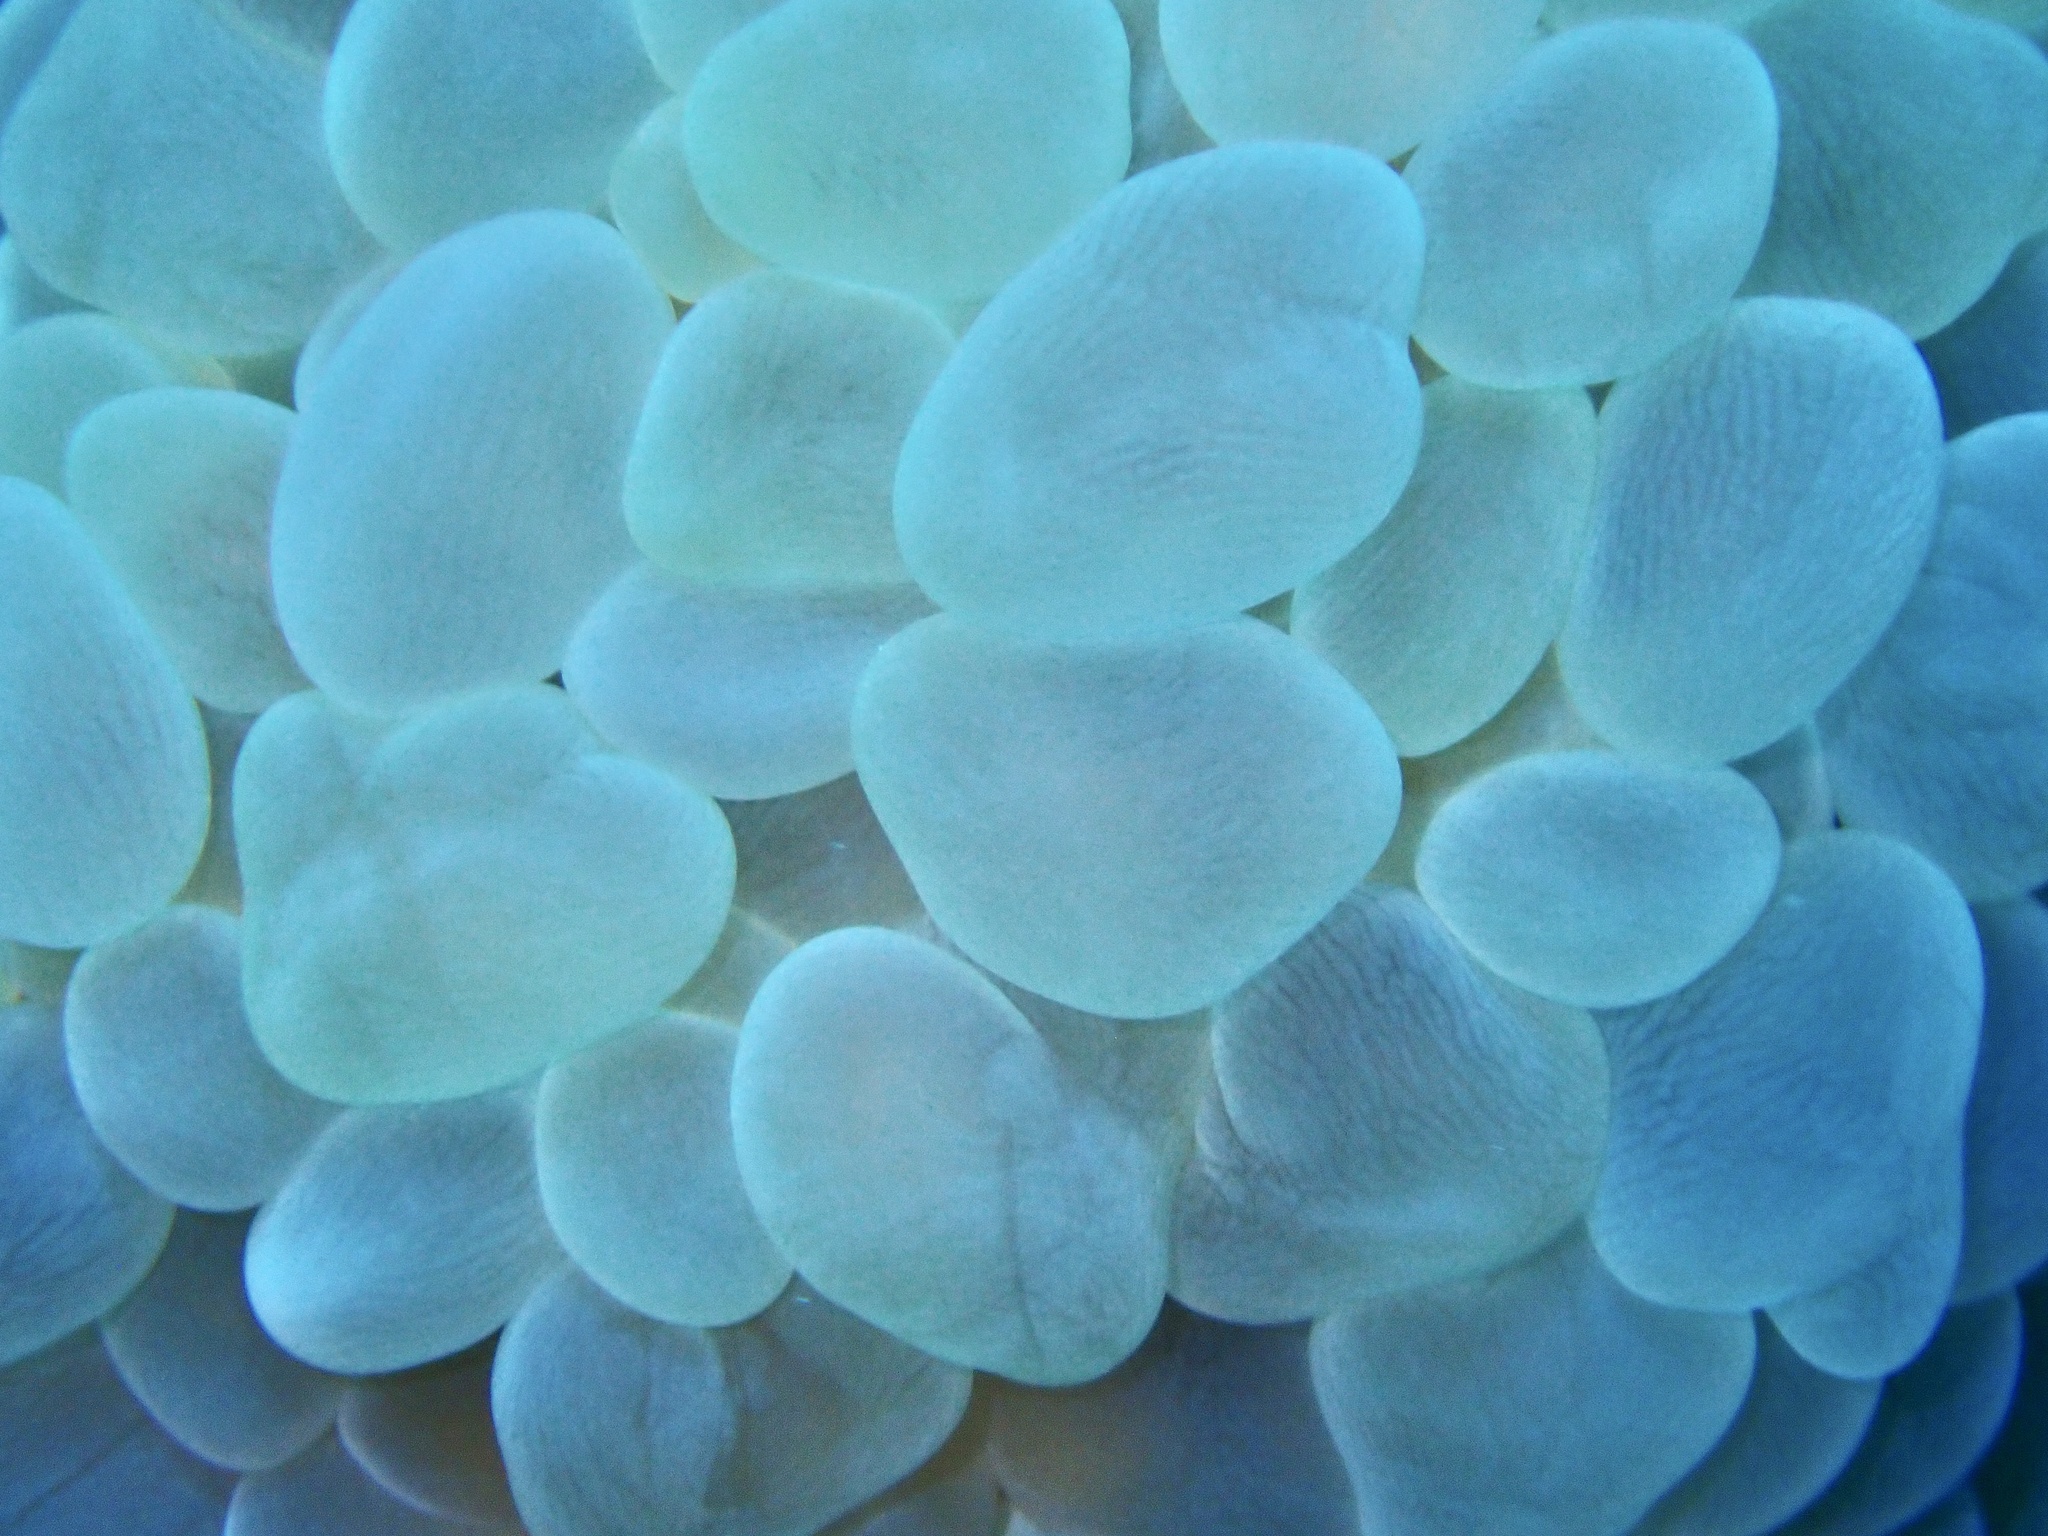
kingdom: Animalia
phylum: Cnidaria
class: Anthozoa
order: Scleractinia
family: Plerogyridae
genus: Plerogyra
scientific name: Plerogyra sinuosa
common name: Bubble coral
